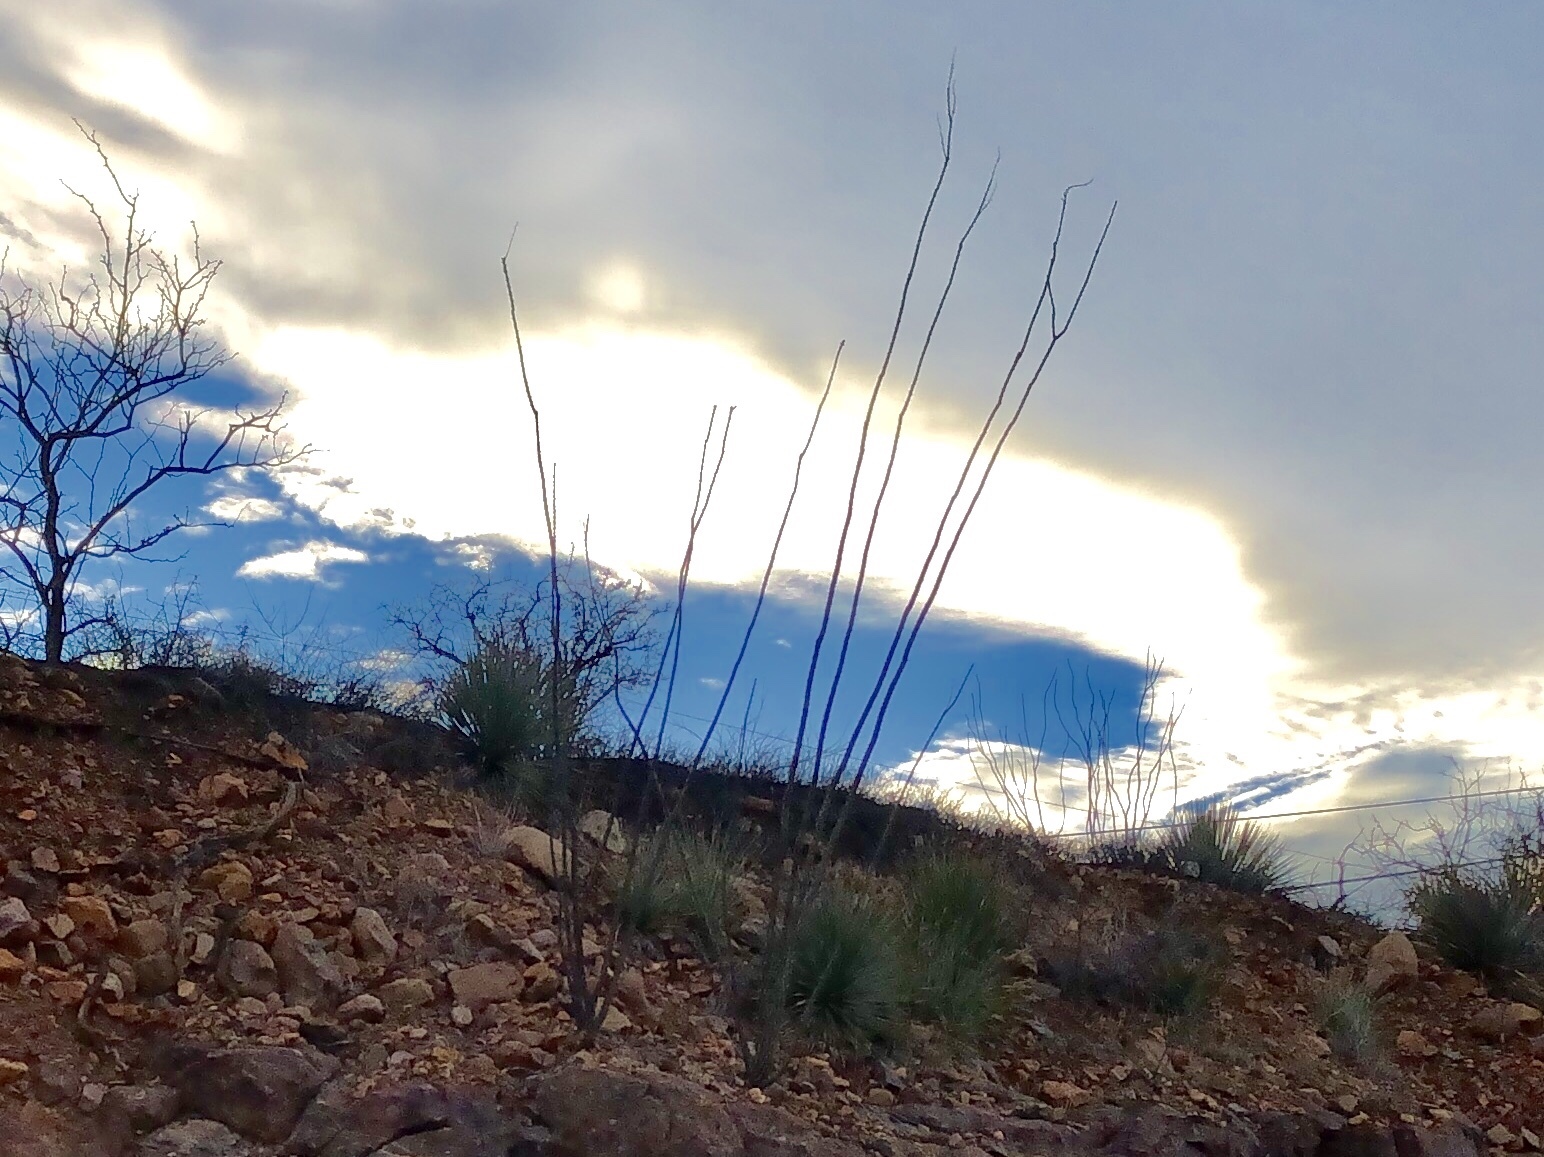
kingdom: Plantae
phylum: Tracheophyta
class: Magnoliopsida
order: Ericales
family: Fouquieriaceae
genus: Fouquieria
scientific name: Fouquieria splendens
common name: Vine-cactus
